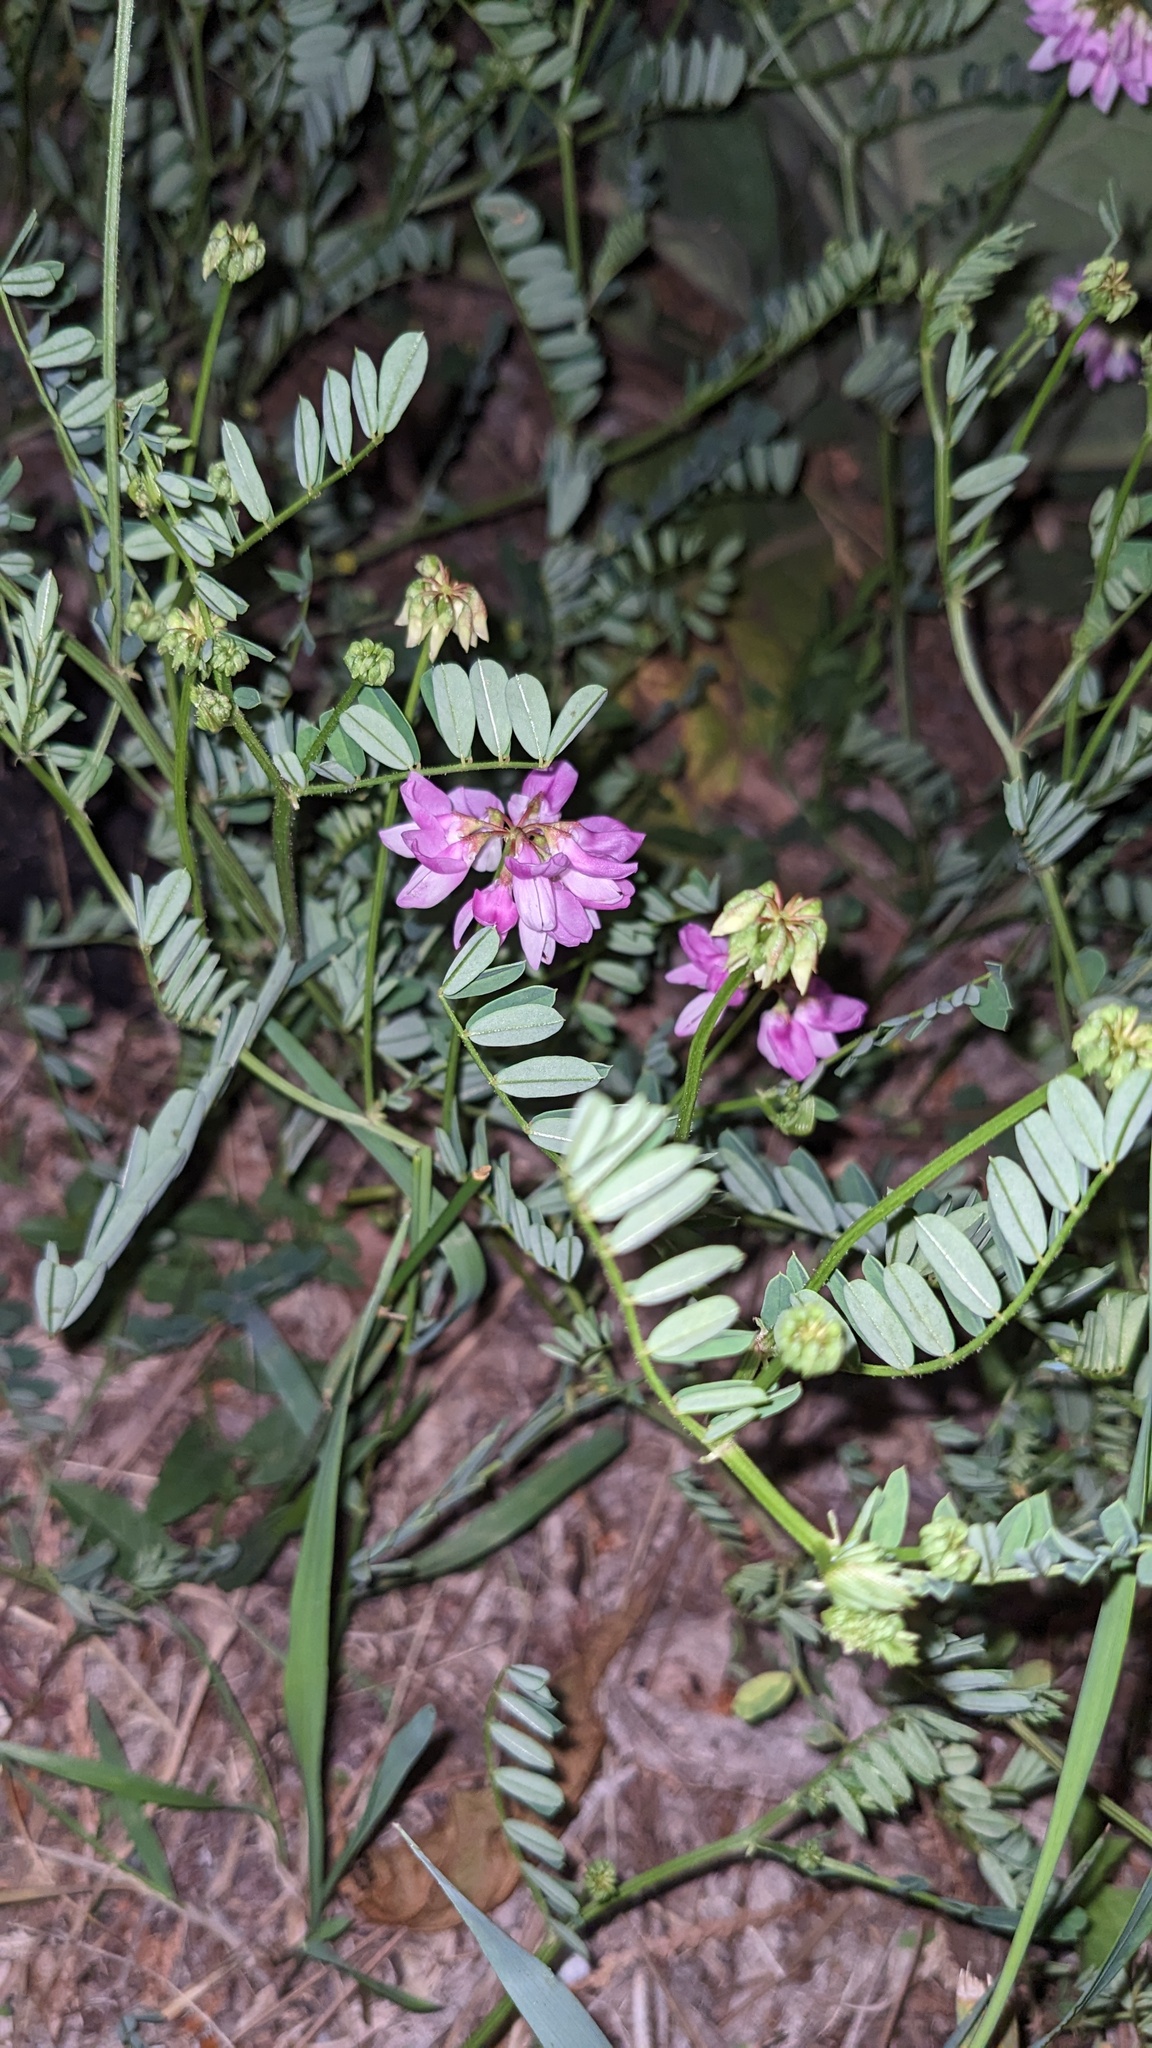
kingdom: Plantae
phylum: Tracheophyta
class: Magnoliopsida
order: Fabales
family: Fabaceae
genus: Coronilla
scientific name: Coronilla varia
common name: Crownvetch
